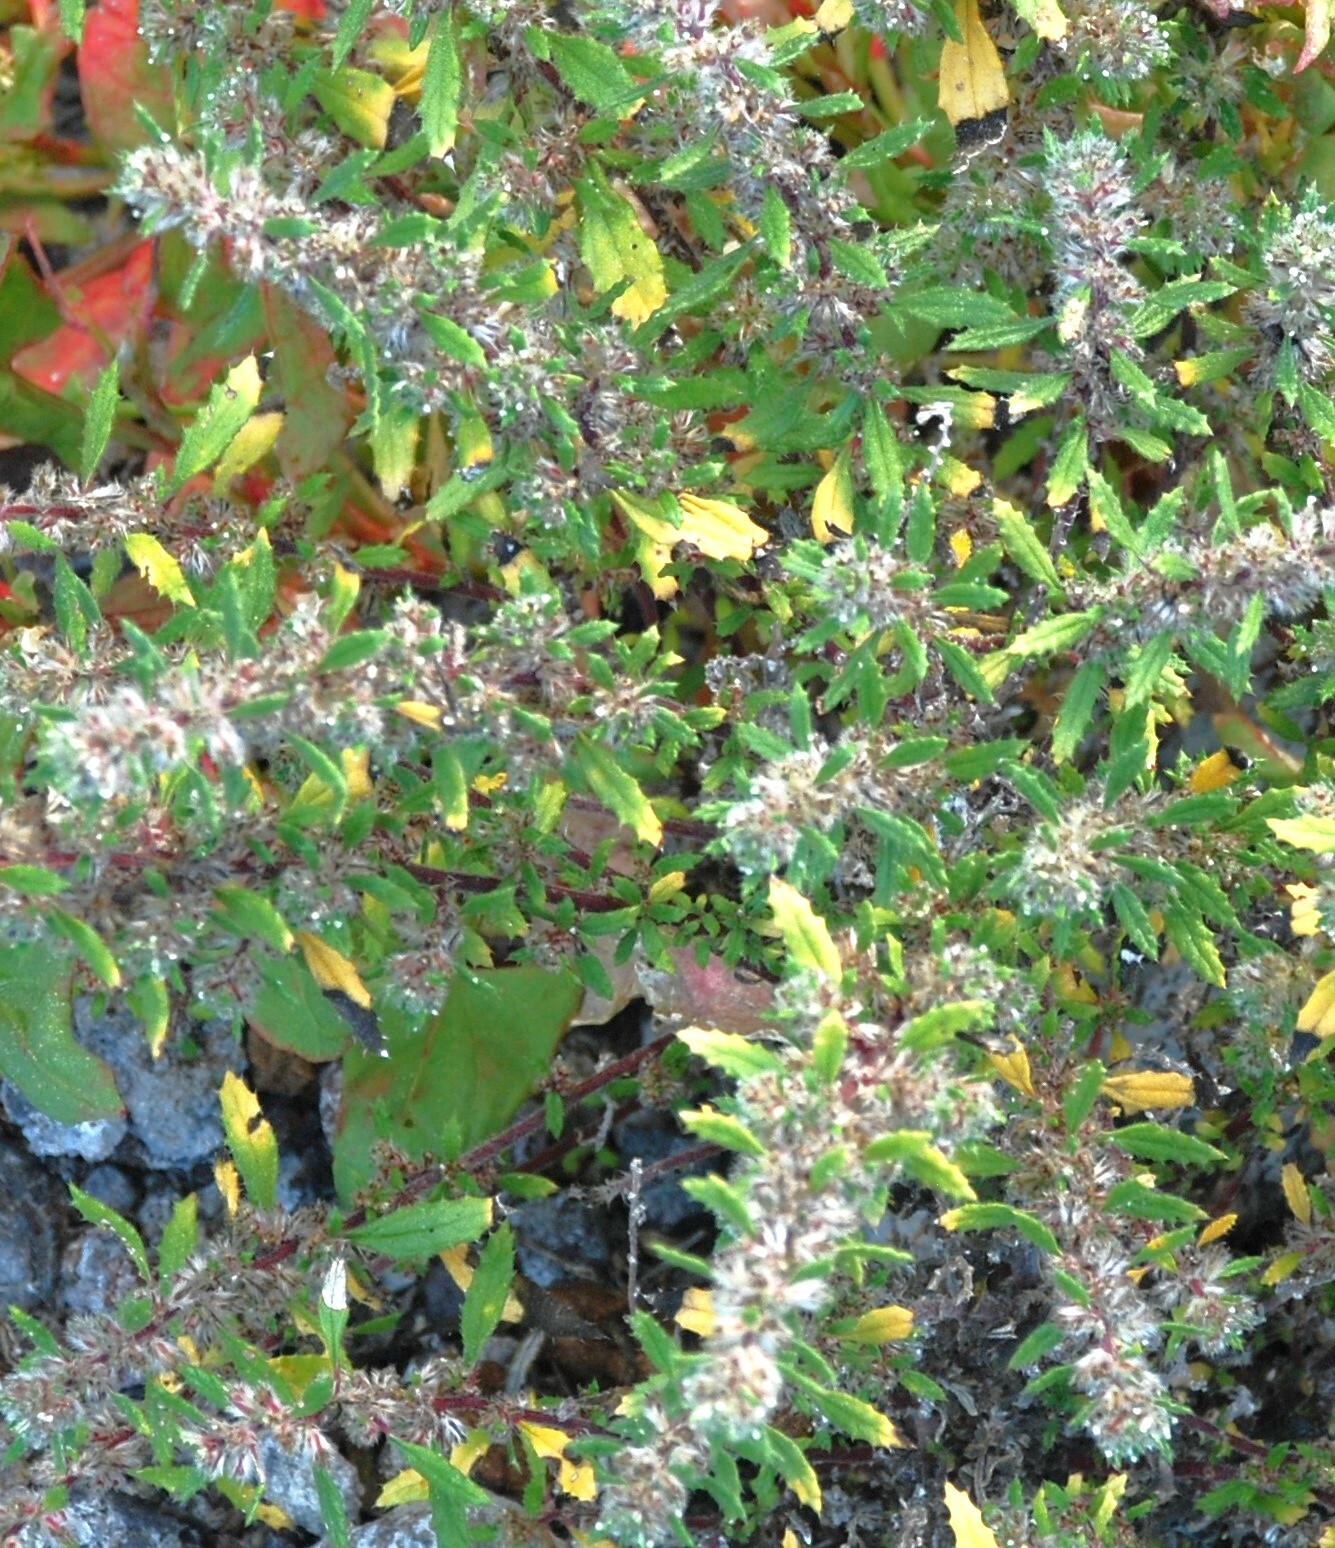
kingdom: Plantae
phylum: Tracheophyta
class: Magnoliopsida
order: Rosales
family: Urticaceae
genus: Forsskaolea
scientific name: Forsskaolea angustifolia
